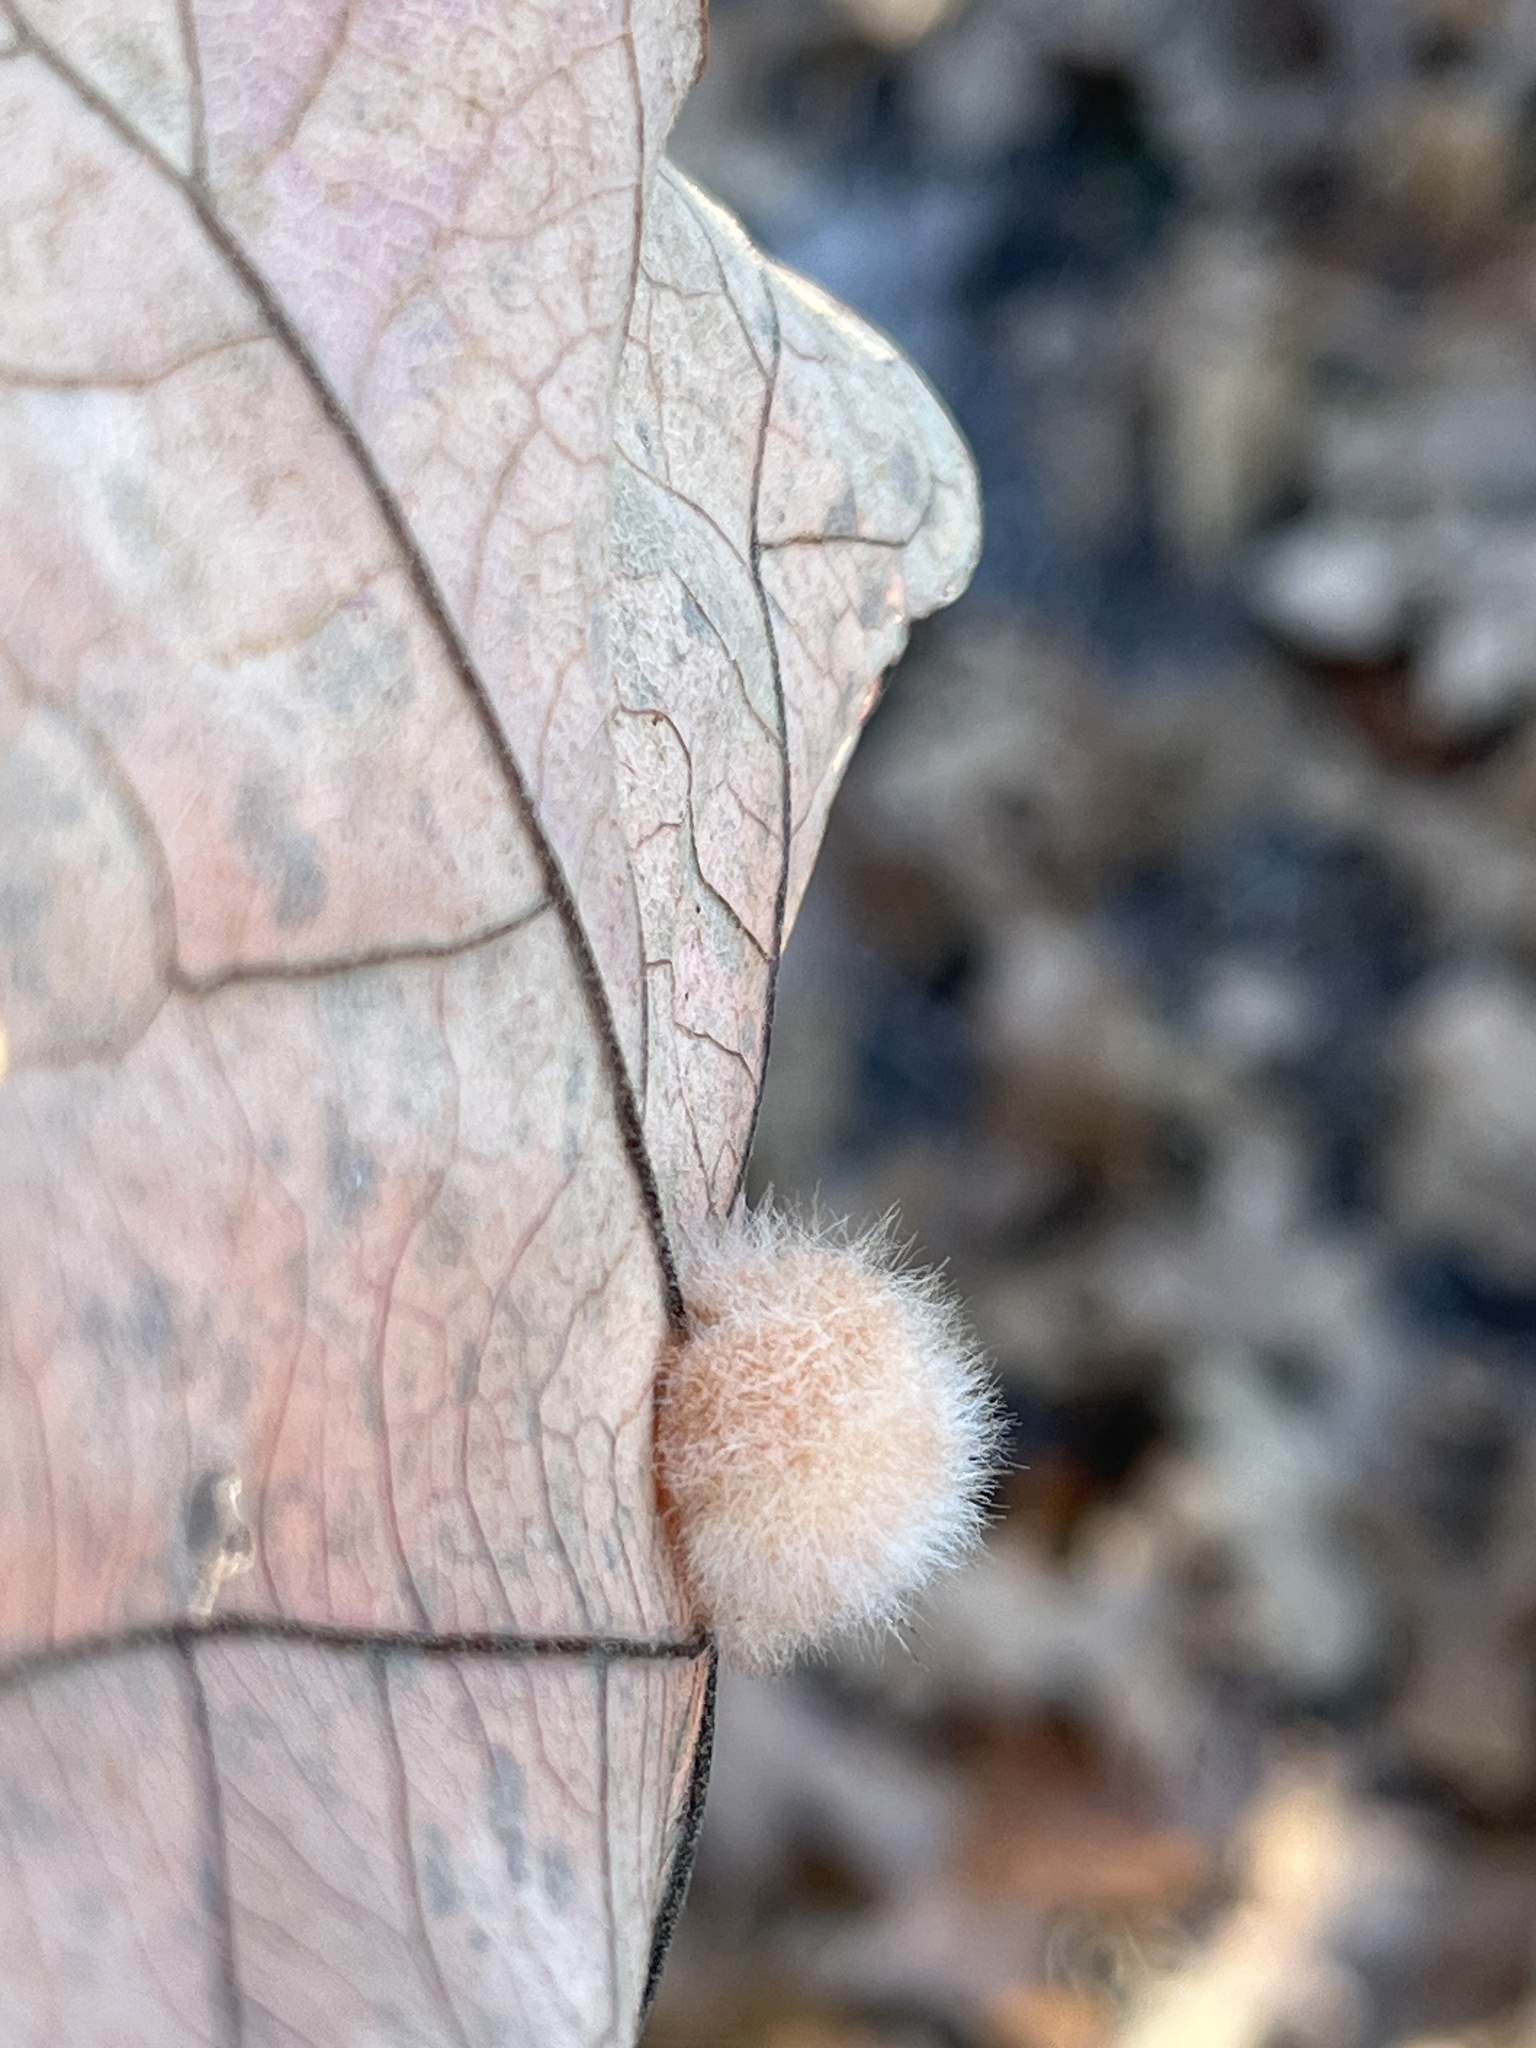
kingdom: Animalia
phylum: Arthropoda
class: Insecta
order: Hymenoptera
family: Cynipidae
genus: Andricus
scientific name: Andricus Druon pattoni
